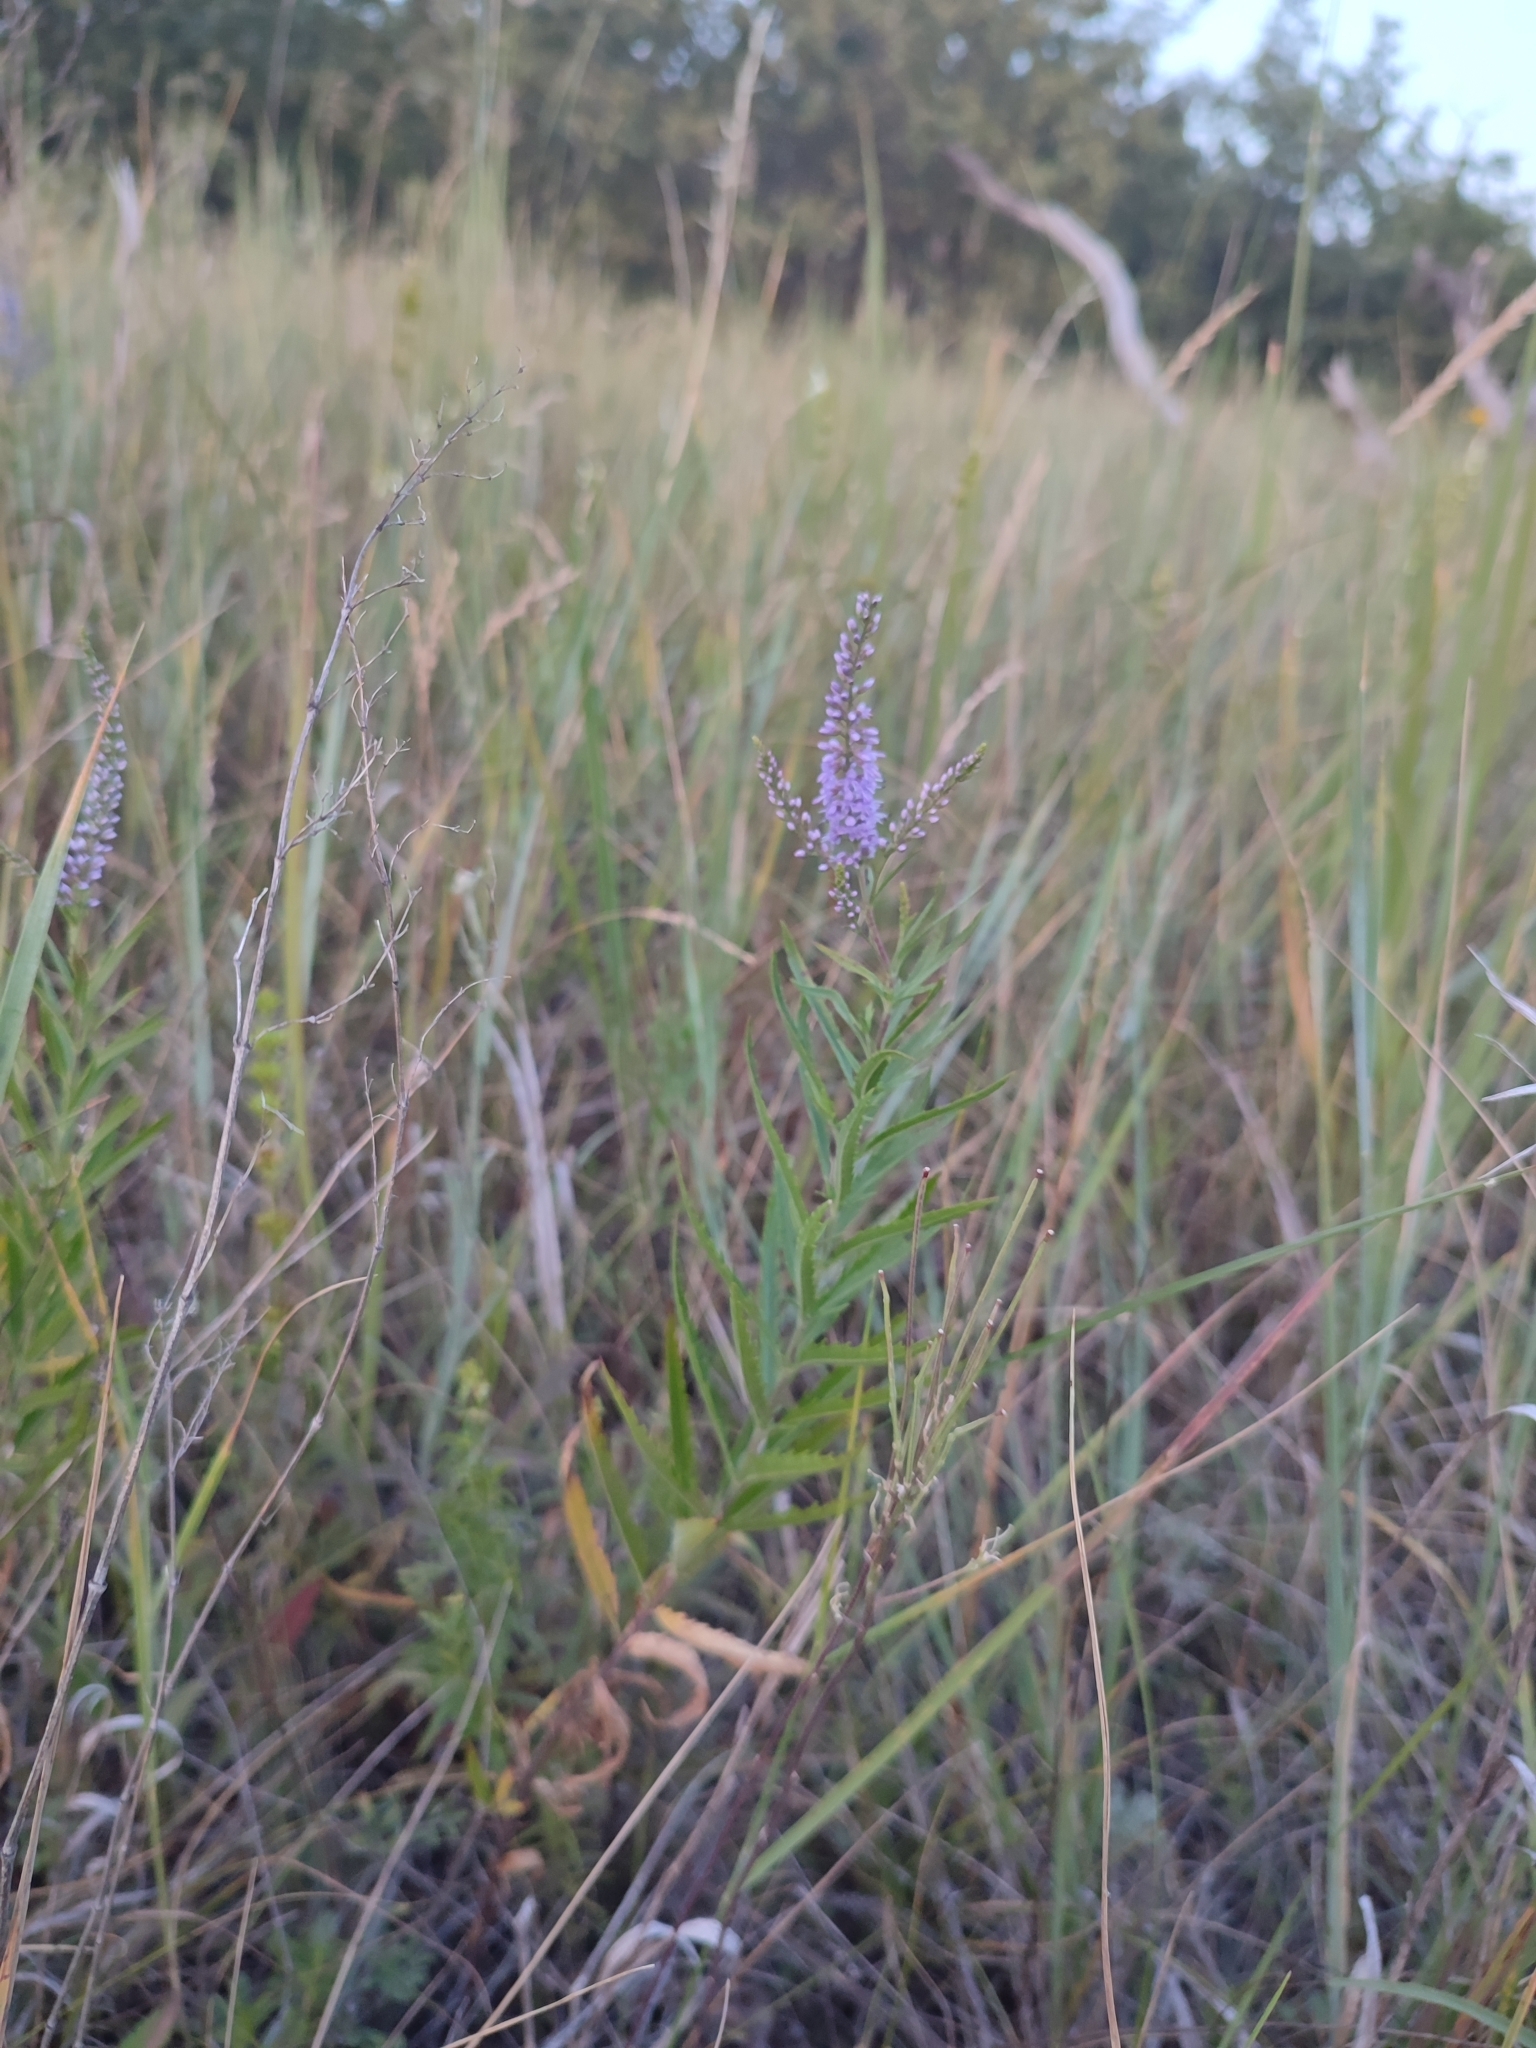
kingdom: Plantae
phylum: Tracheophyta
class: Magnoliopsida
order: Lamiales
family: Plantaginaceae
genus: Veronica
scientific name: Veronica spuria
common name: Bastard speedwell
